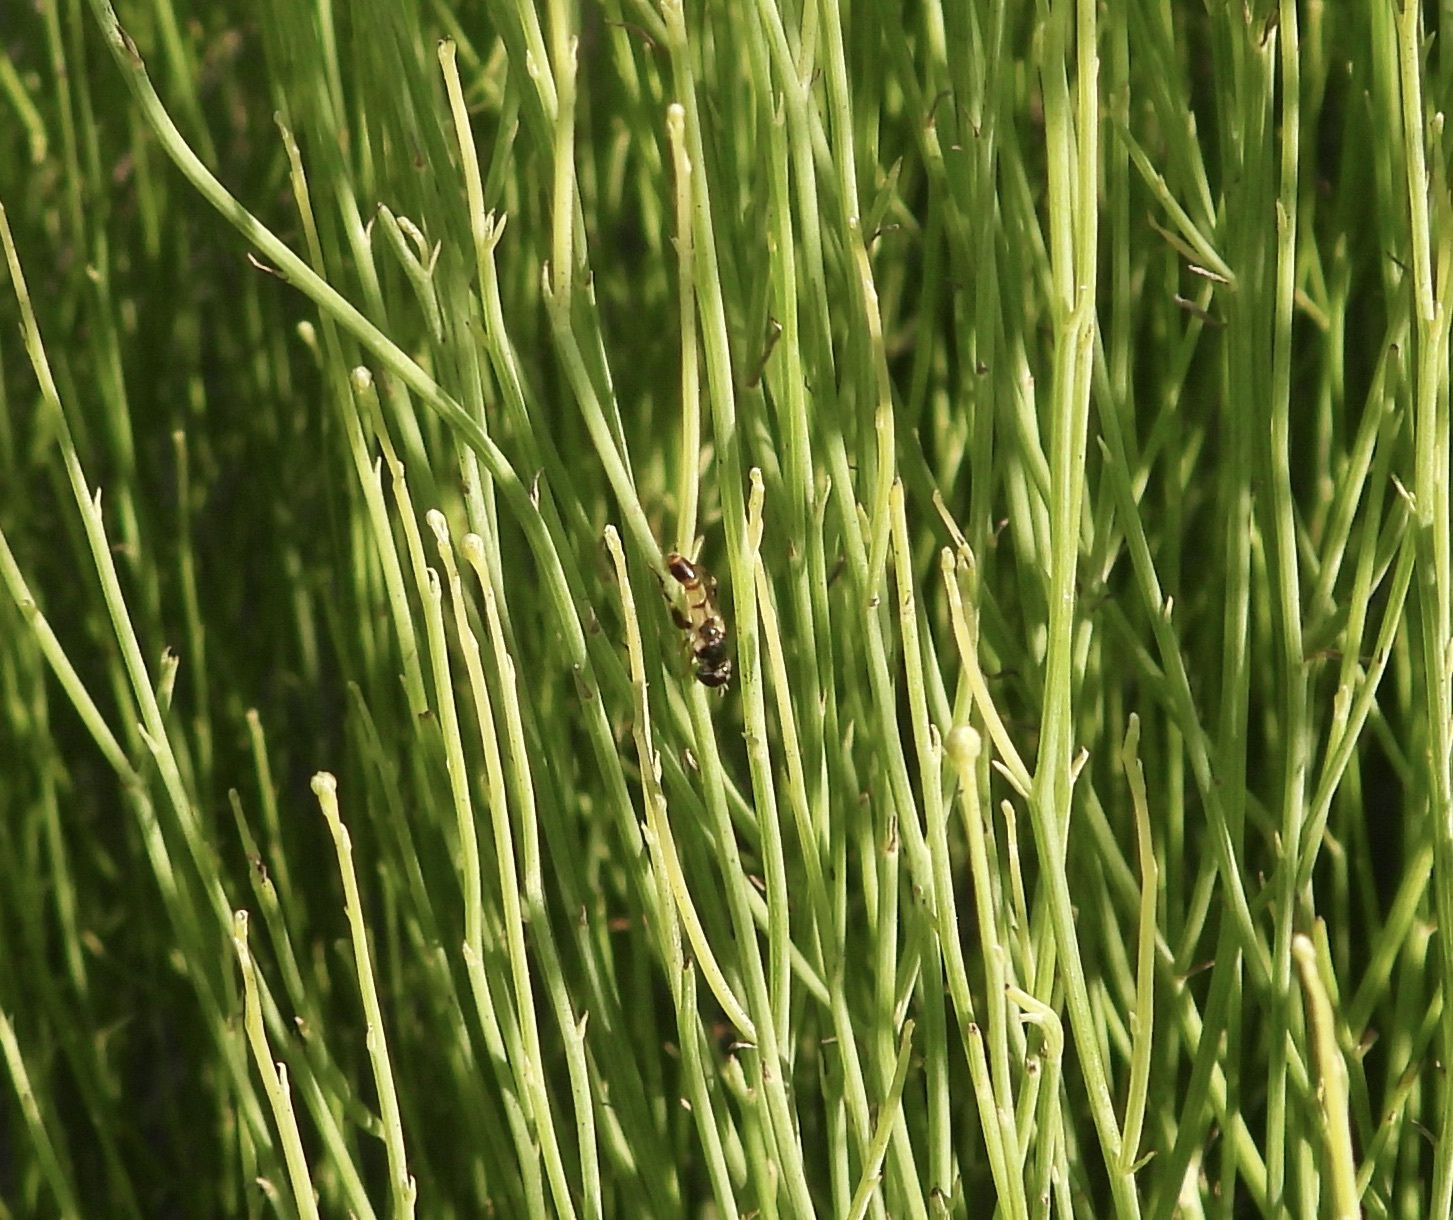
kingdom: Animalia
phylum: Arthropoda
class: Insecta
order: Diptera
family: Syrphidae
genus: Syritta
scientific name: Syritta flaviventris
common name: Syrphid fly
